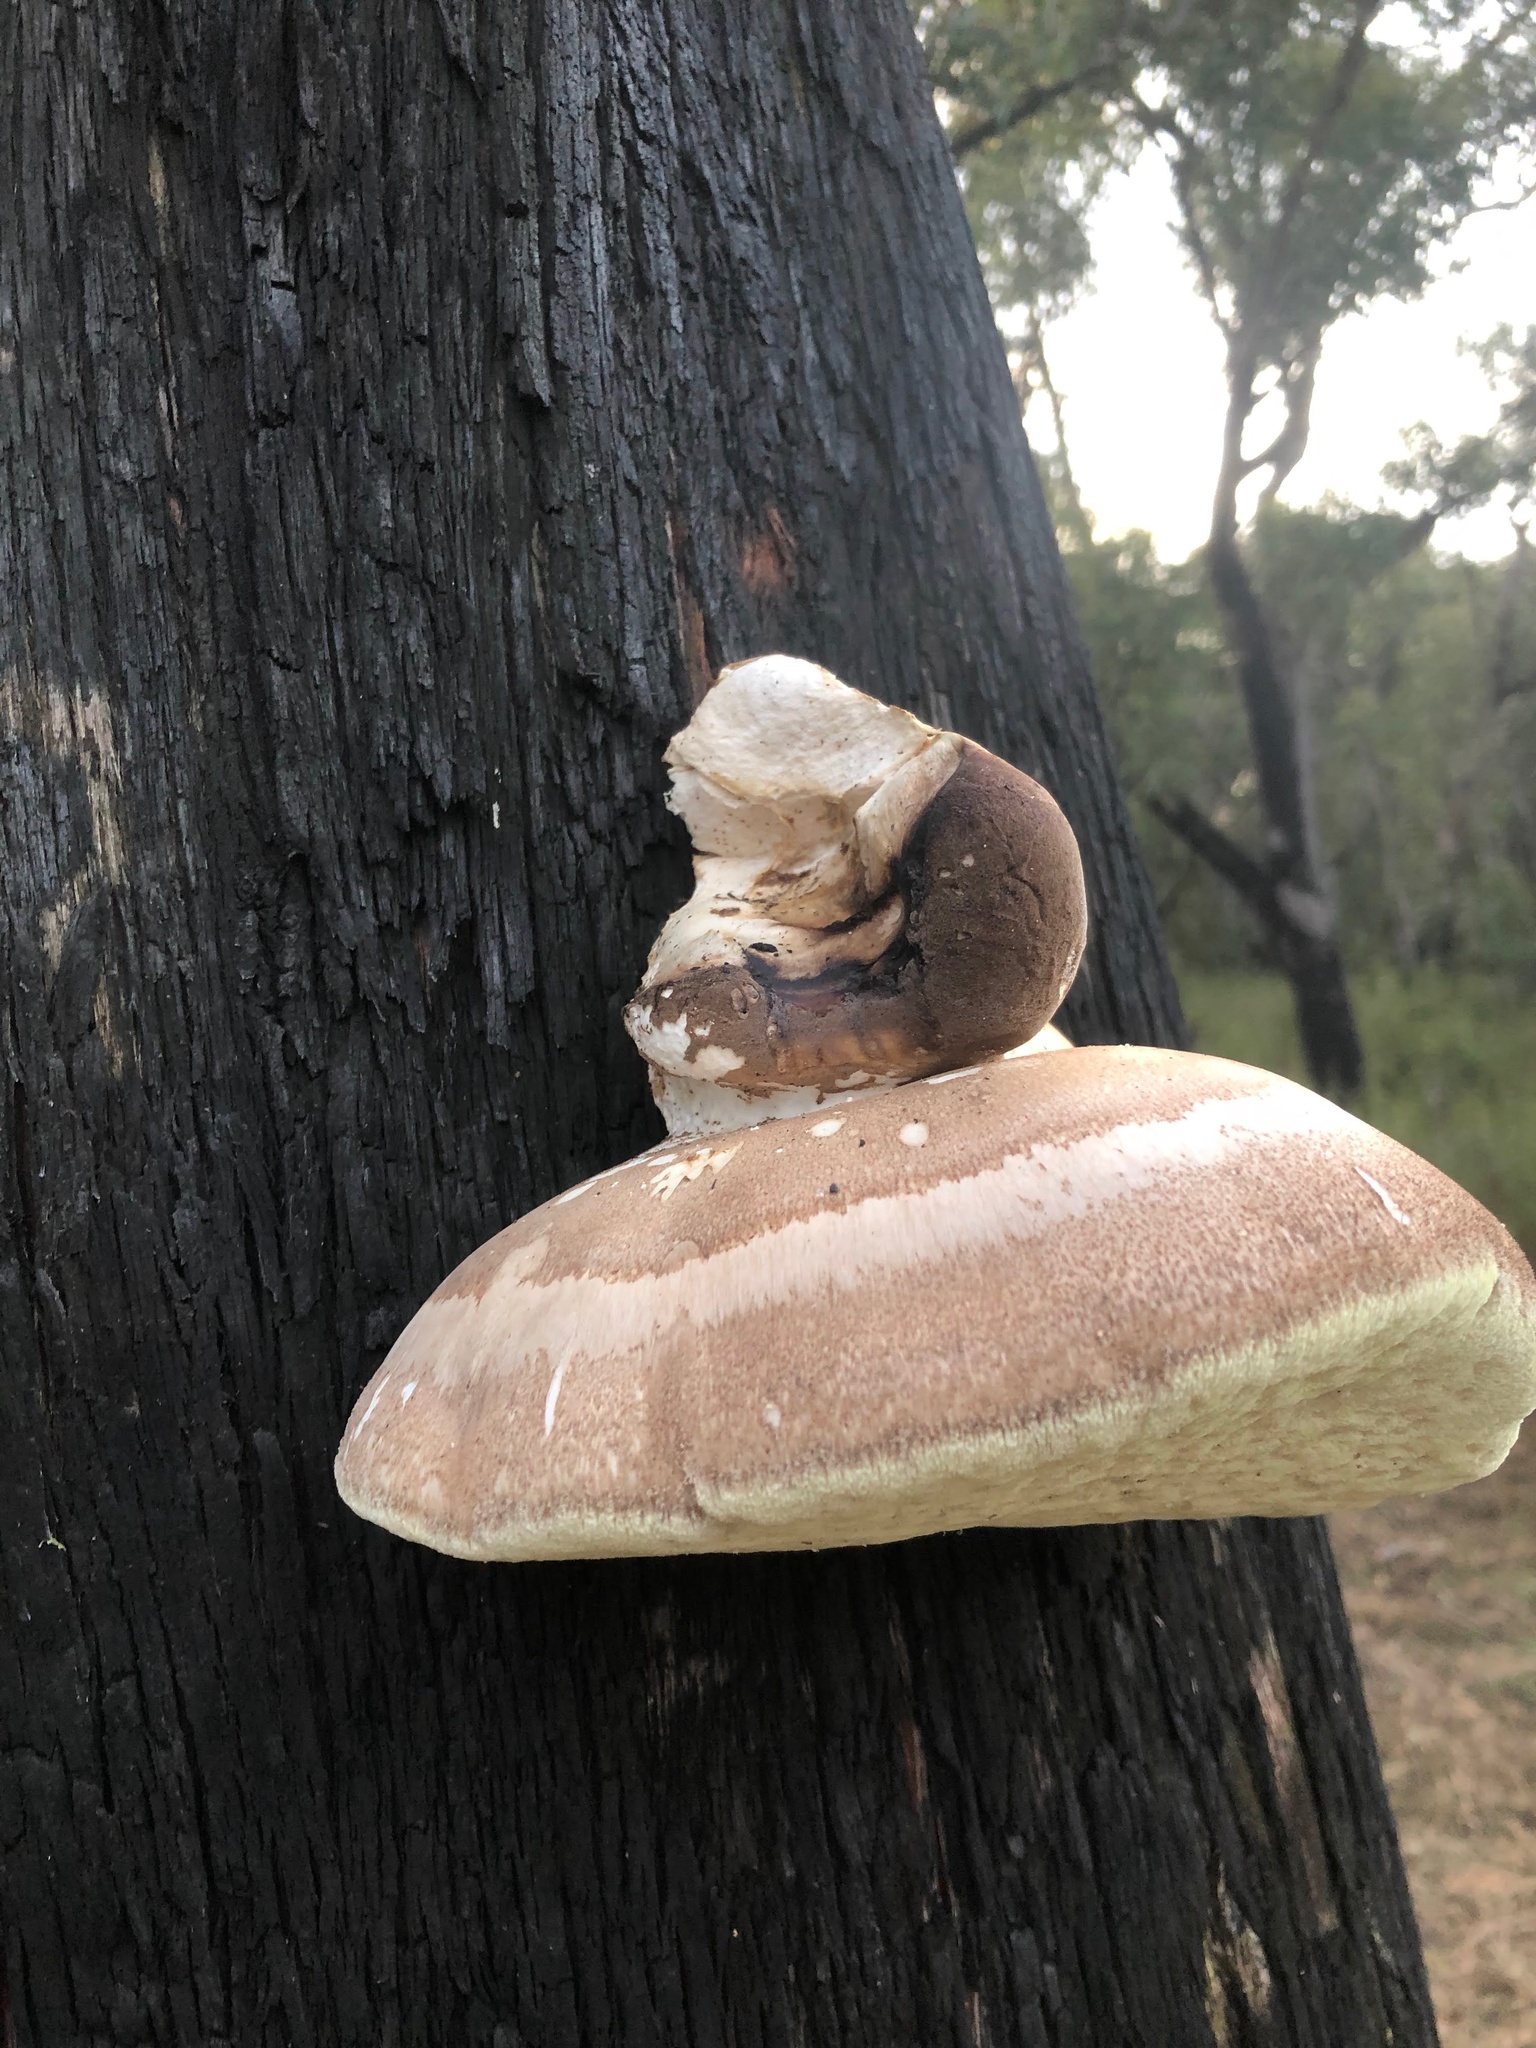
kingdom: Fungi
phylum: Basidiomycota
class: Agaricomycetes
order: Polyporales
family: Laetiporaceae
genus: Laetiporus
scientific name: Laetiporus portentosus
